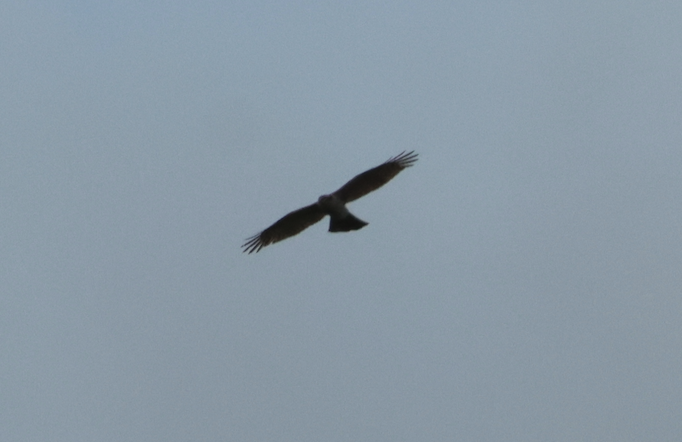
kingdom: Animalia
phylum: Chordata
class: Aves
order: Accipitriformes
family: Accipitridae
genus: Accipiter
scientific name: Accipiter nisus
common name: Eurasian sparrowhawk
